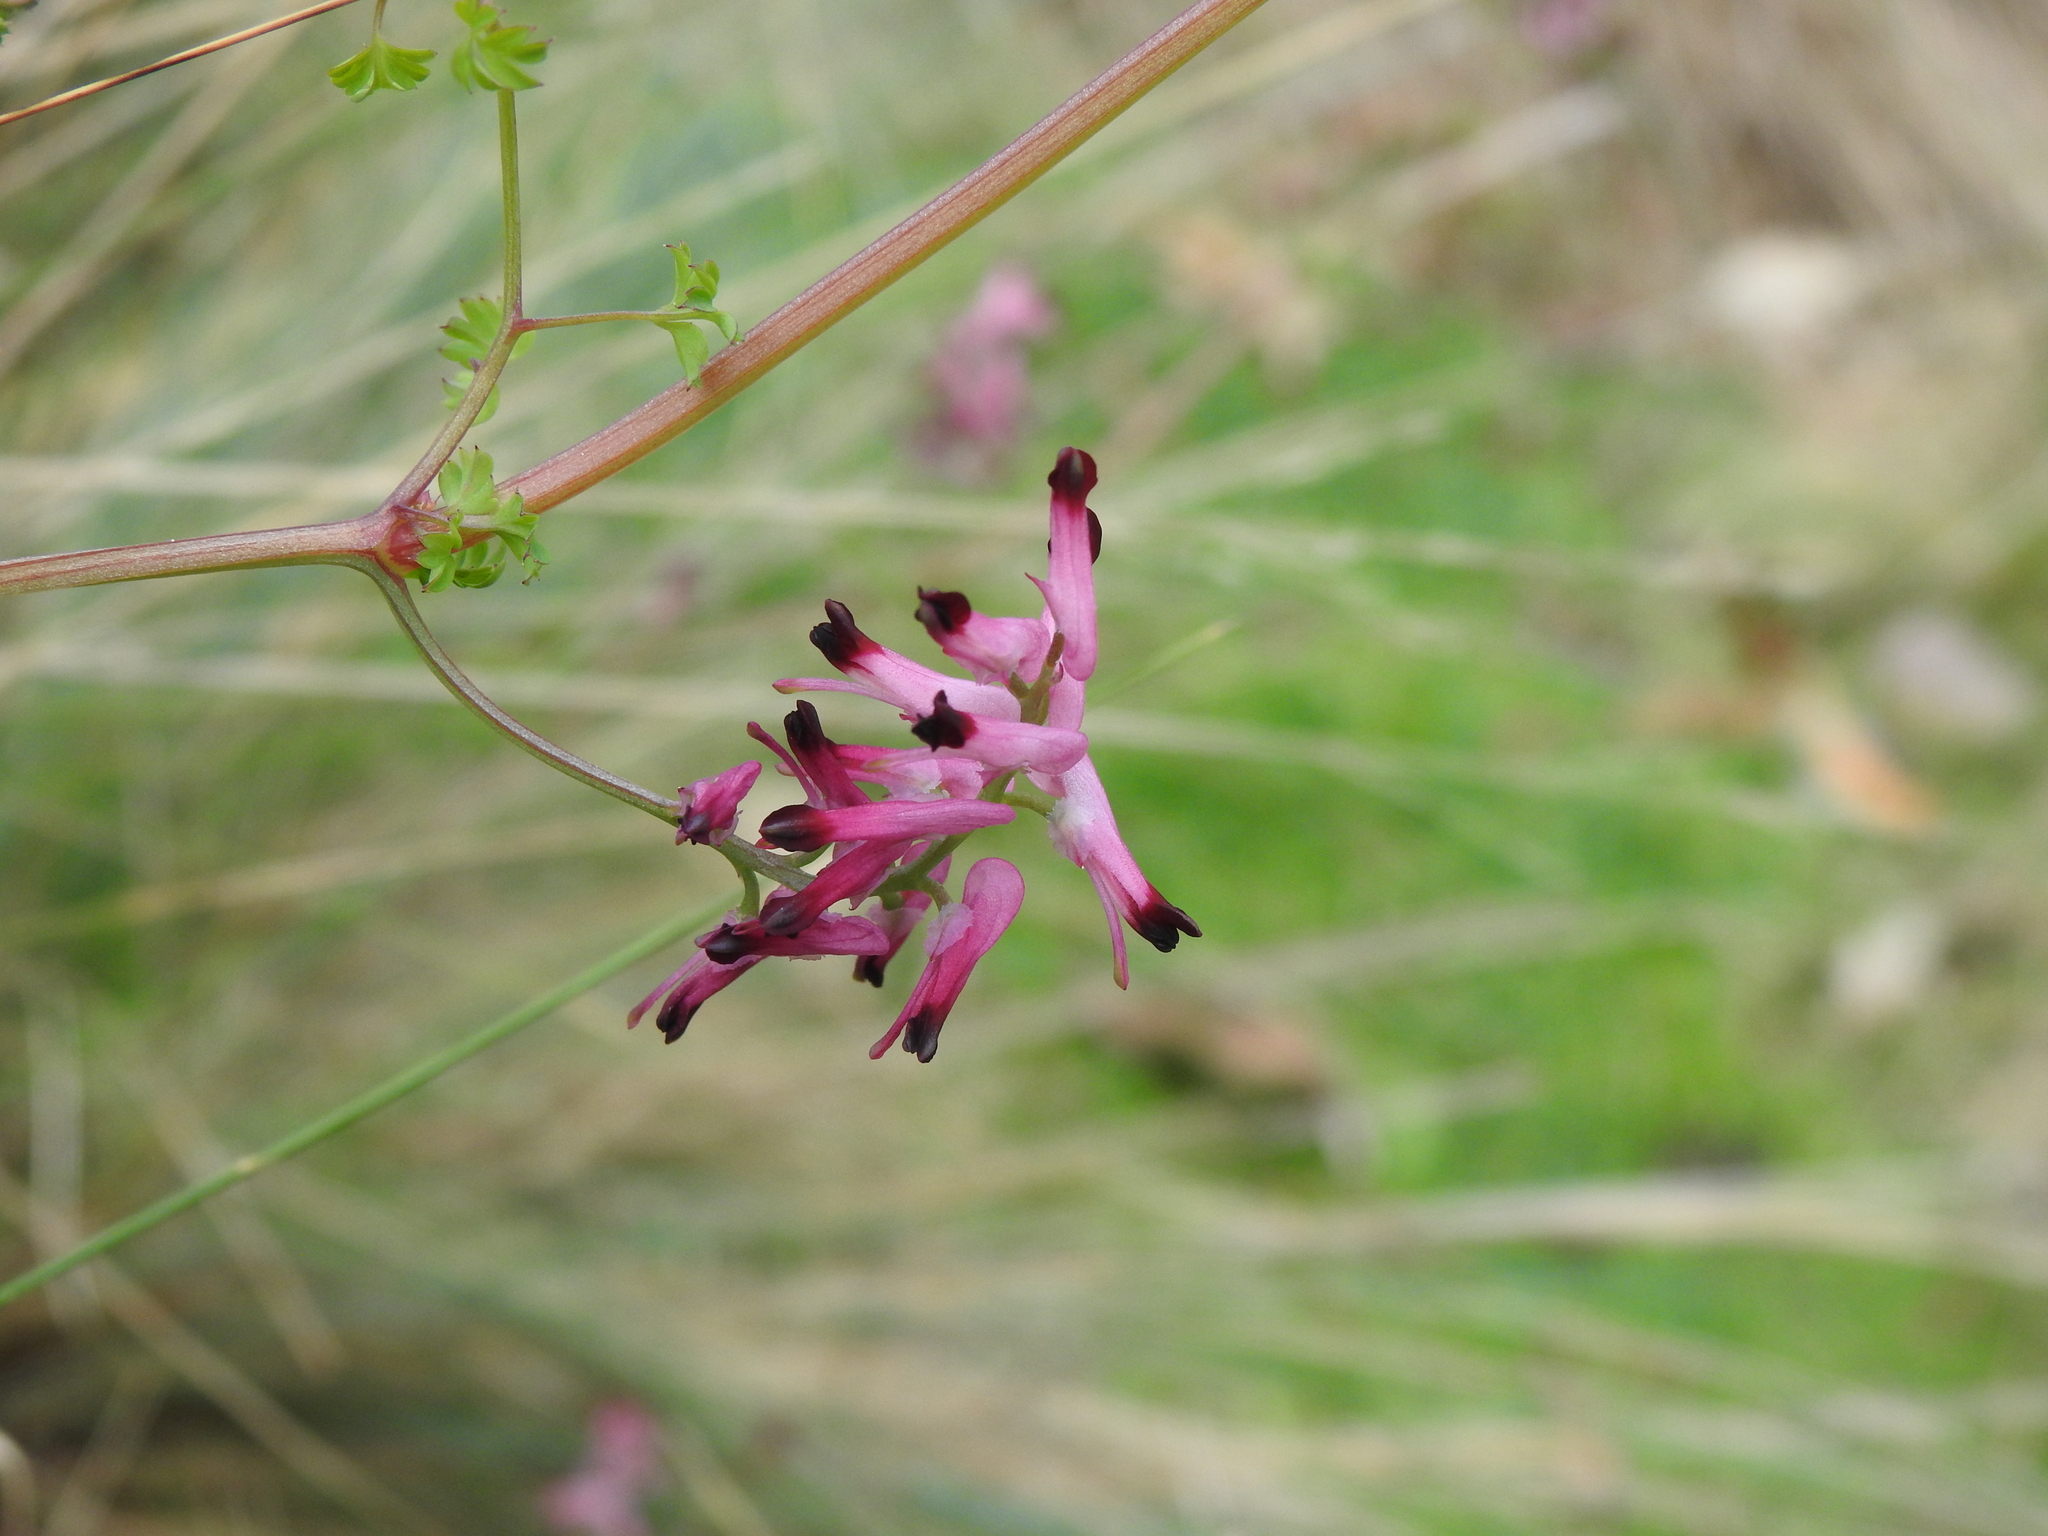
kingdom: Plantae
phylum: Tracheophyta
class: Magnoliopsida
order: Ranunculales
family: Papaveraceae
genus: Fumaria
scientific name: Fumaria muralis
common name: Common ramping-fumitory
